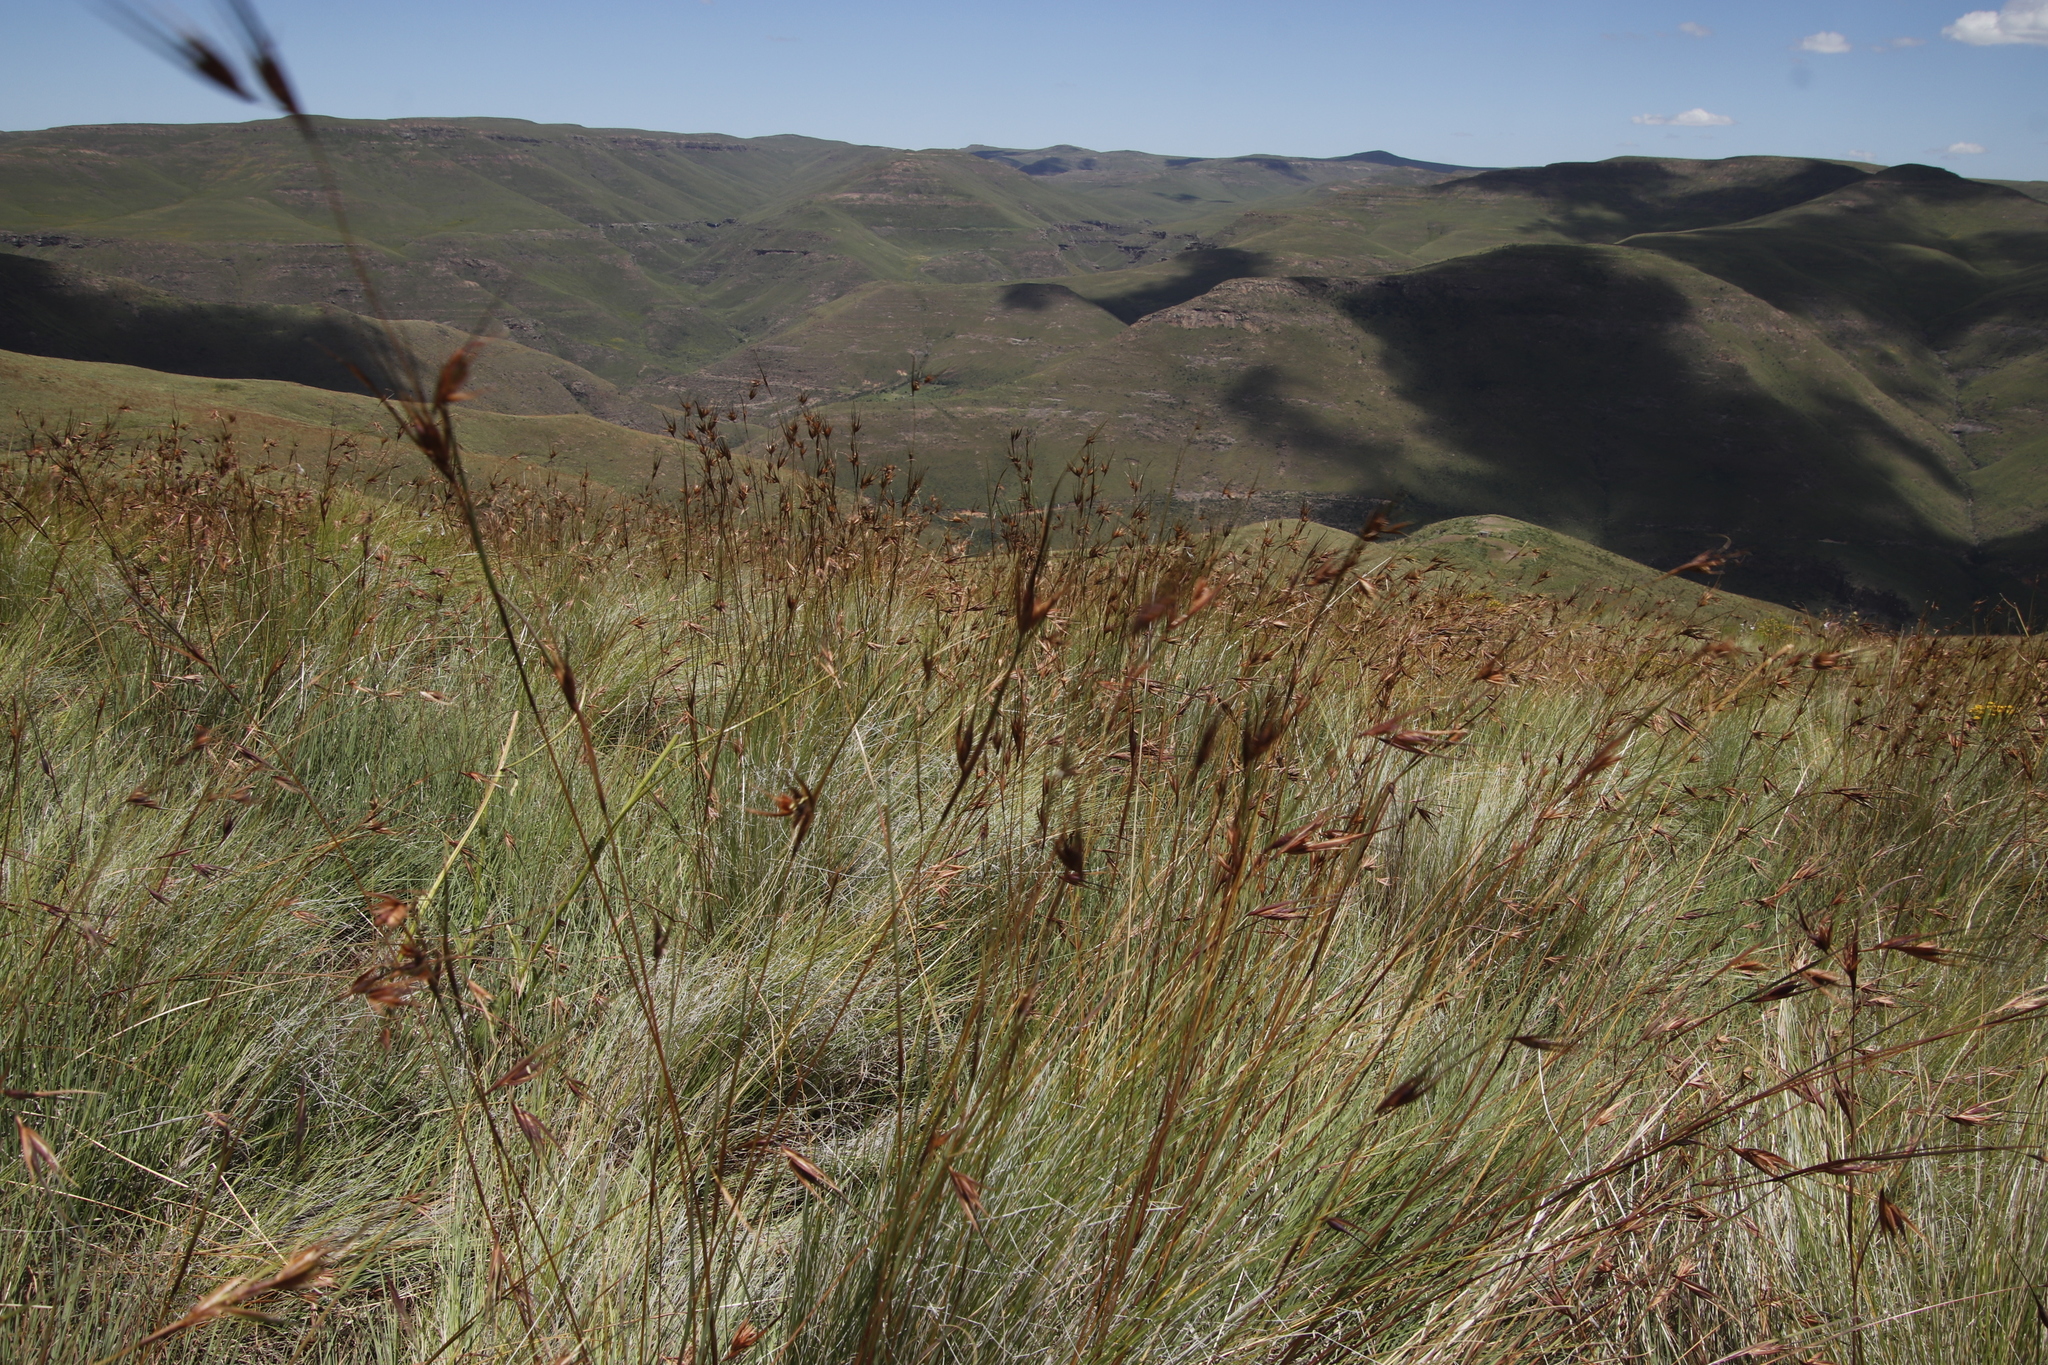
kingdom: Plantae
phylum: Tracheophyta
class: Liliopsida
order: Poales
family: Poaceae
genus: Themeda
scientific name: Themeda triandra
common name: Kangaroo grass
